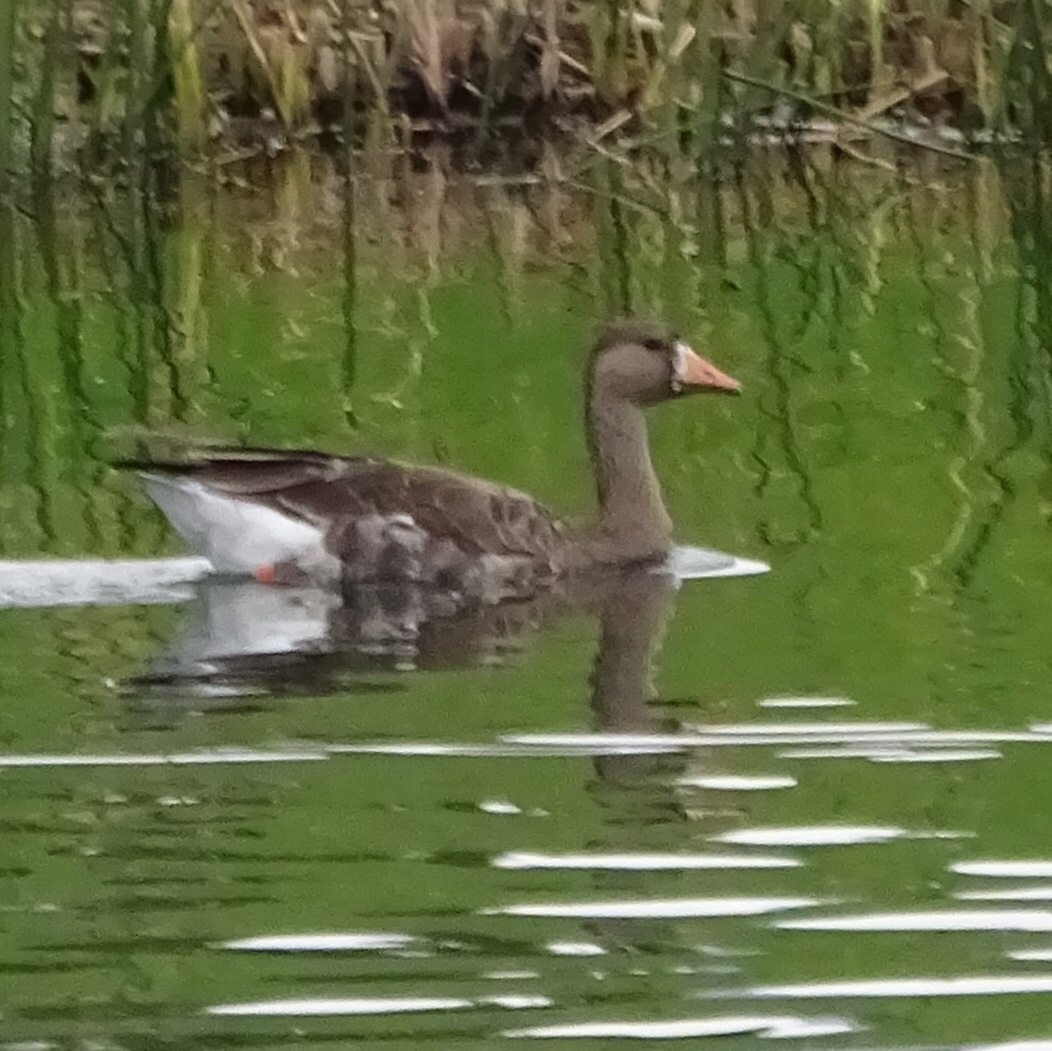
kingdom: Animalia
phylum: Chordata
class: Aves
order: Anseriformes
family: Anatidae
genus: Anser
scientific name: Anser albifrons
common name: Greater white-fronted goose
